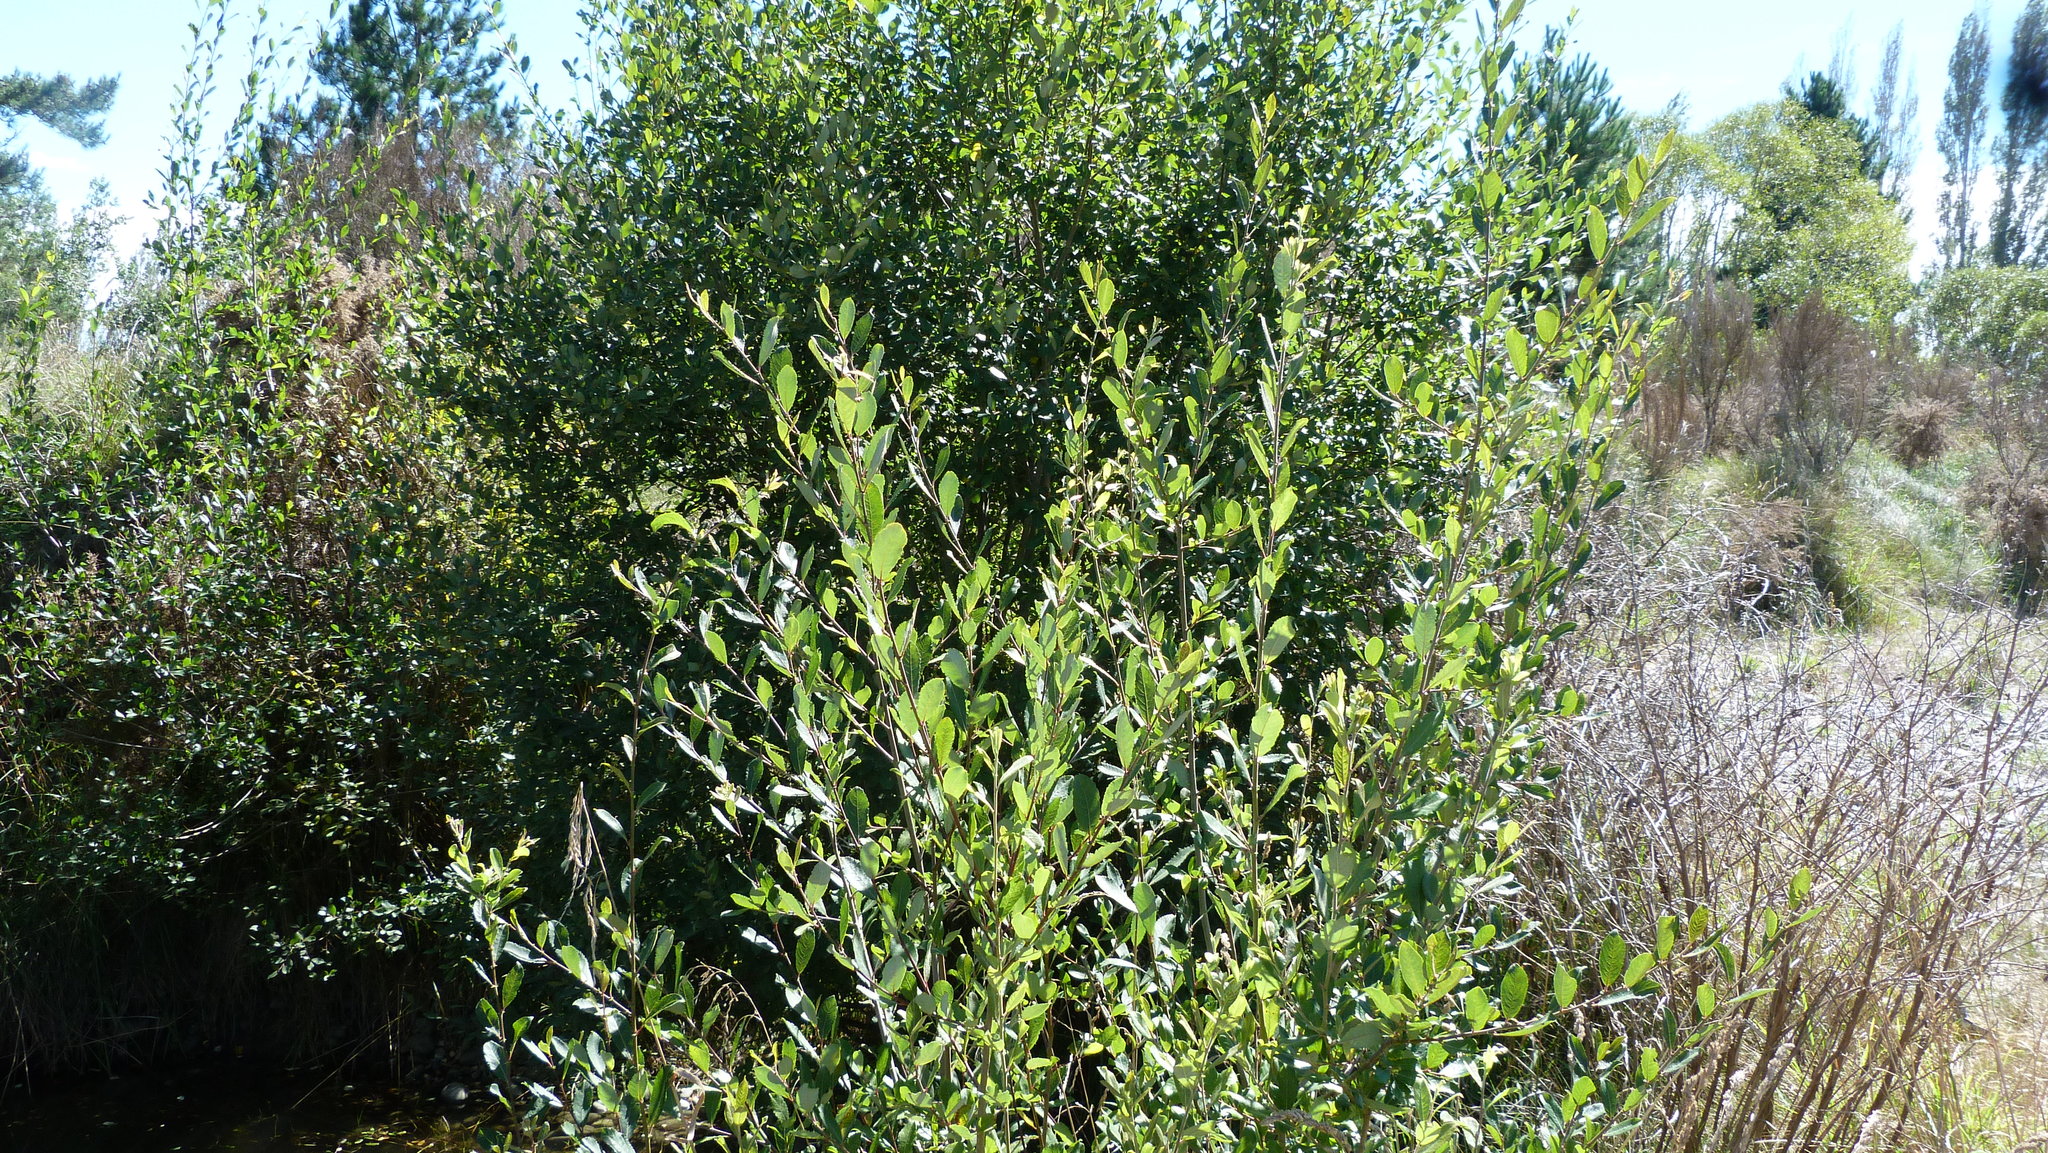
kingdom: Plantae
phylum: Tracheophyta
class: Magnoliopsida
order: Malpighiales
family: Salicaceae
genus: Salix
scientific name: Salix cinerea
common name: Common sallow
